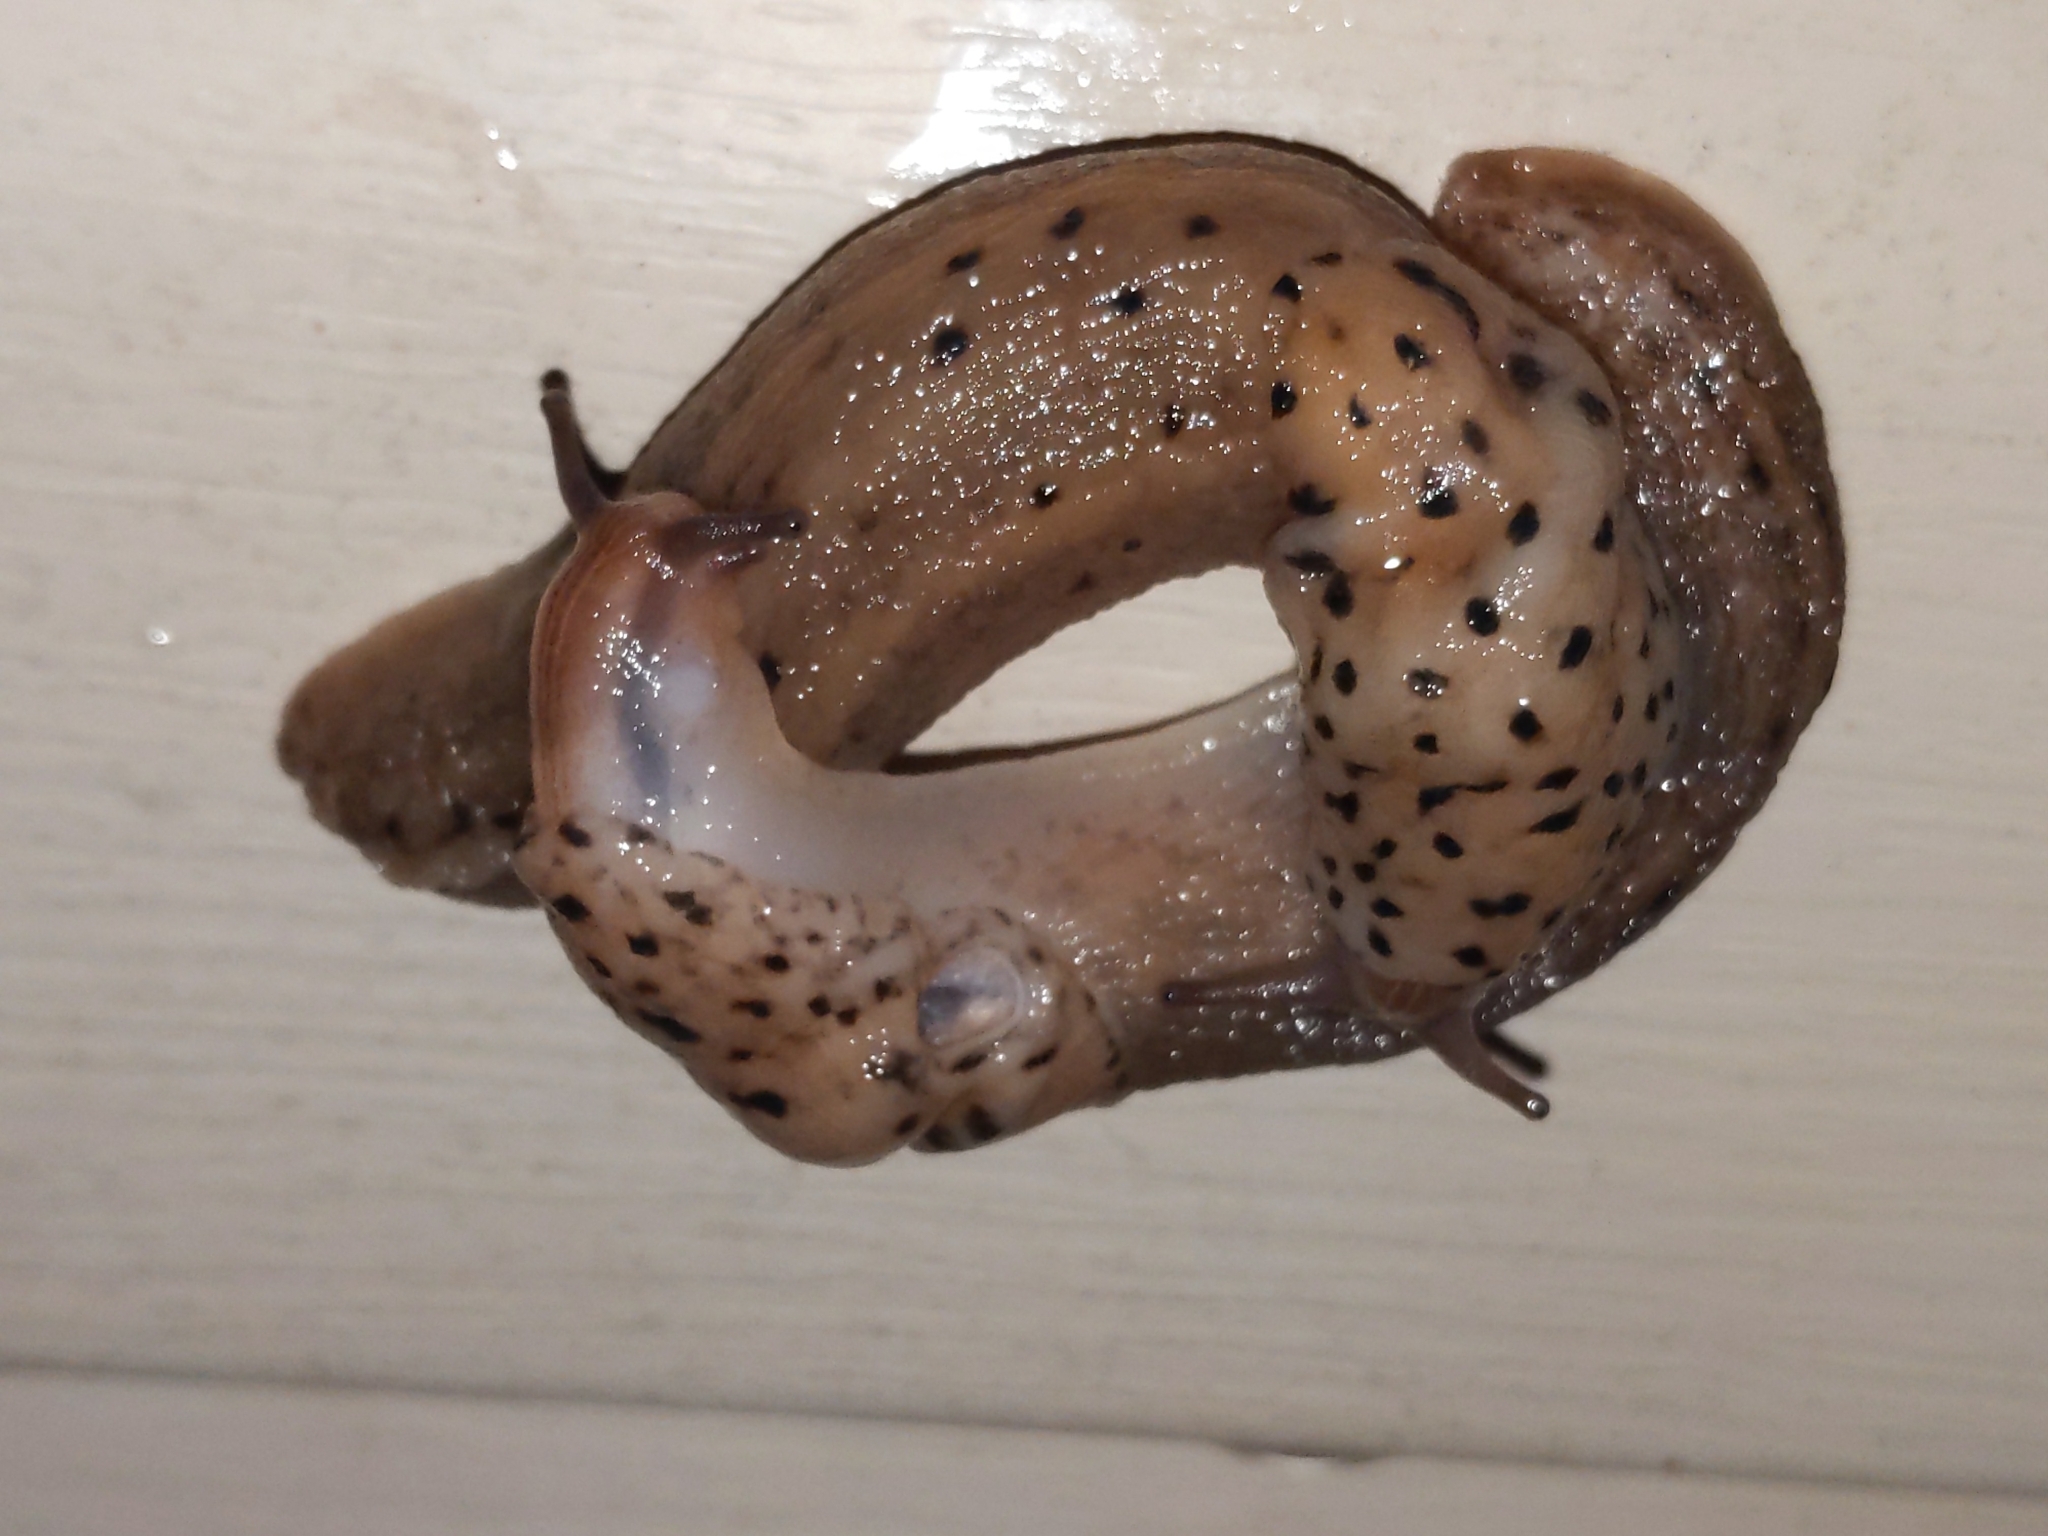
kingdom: Animalia
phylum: Mollusca
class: Gastropoda
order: Stylommatophora
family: Limacidae
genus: Limax
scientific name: Limax maximus
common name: Great grey slug
